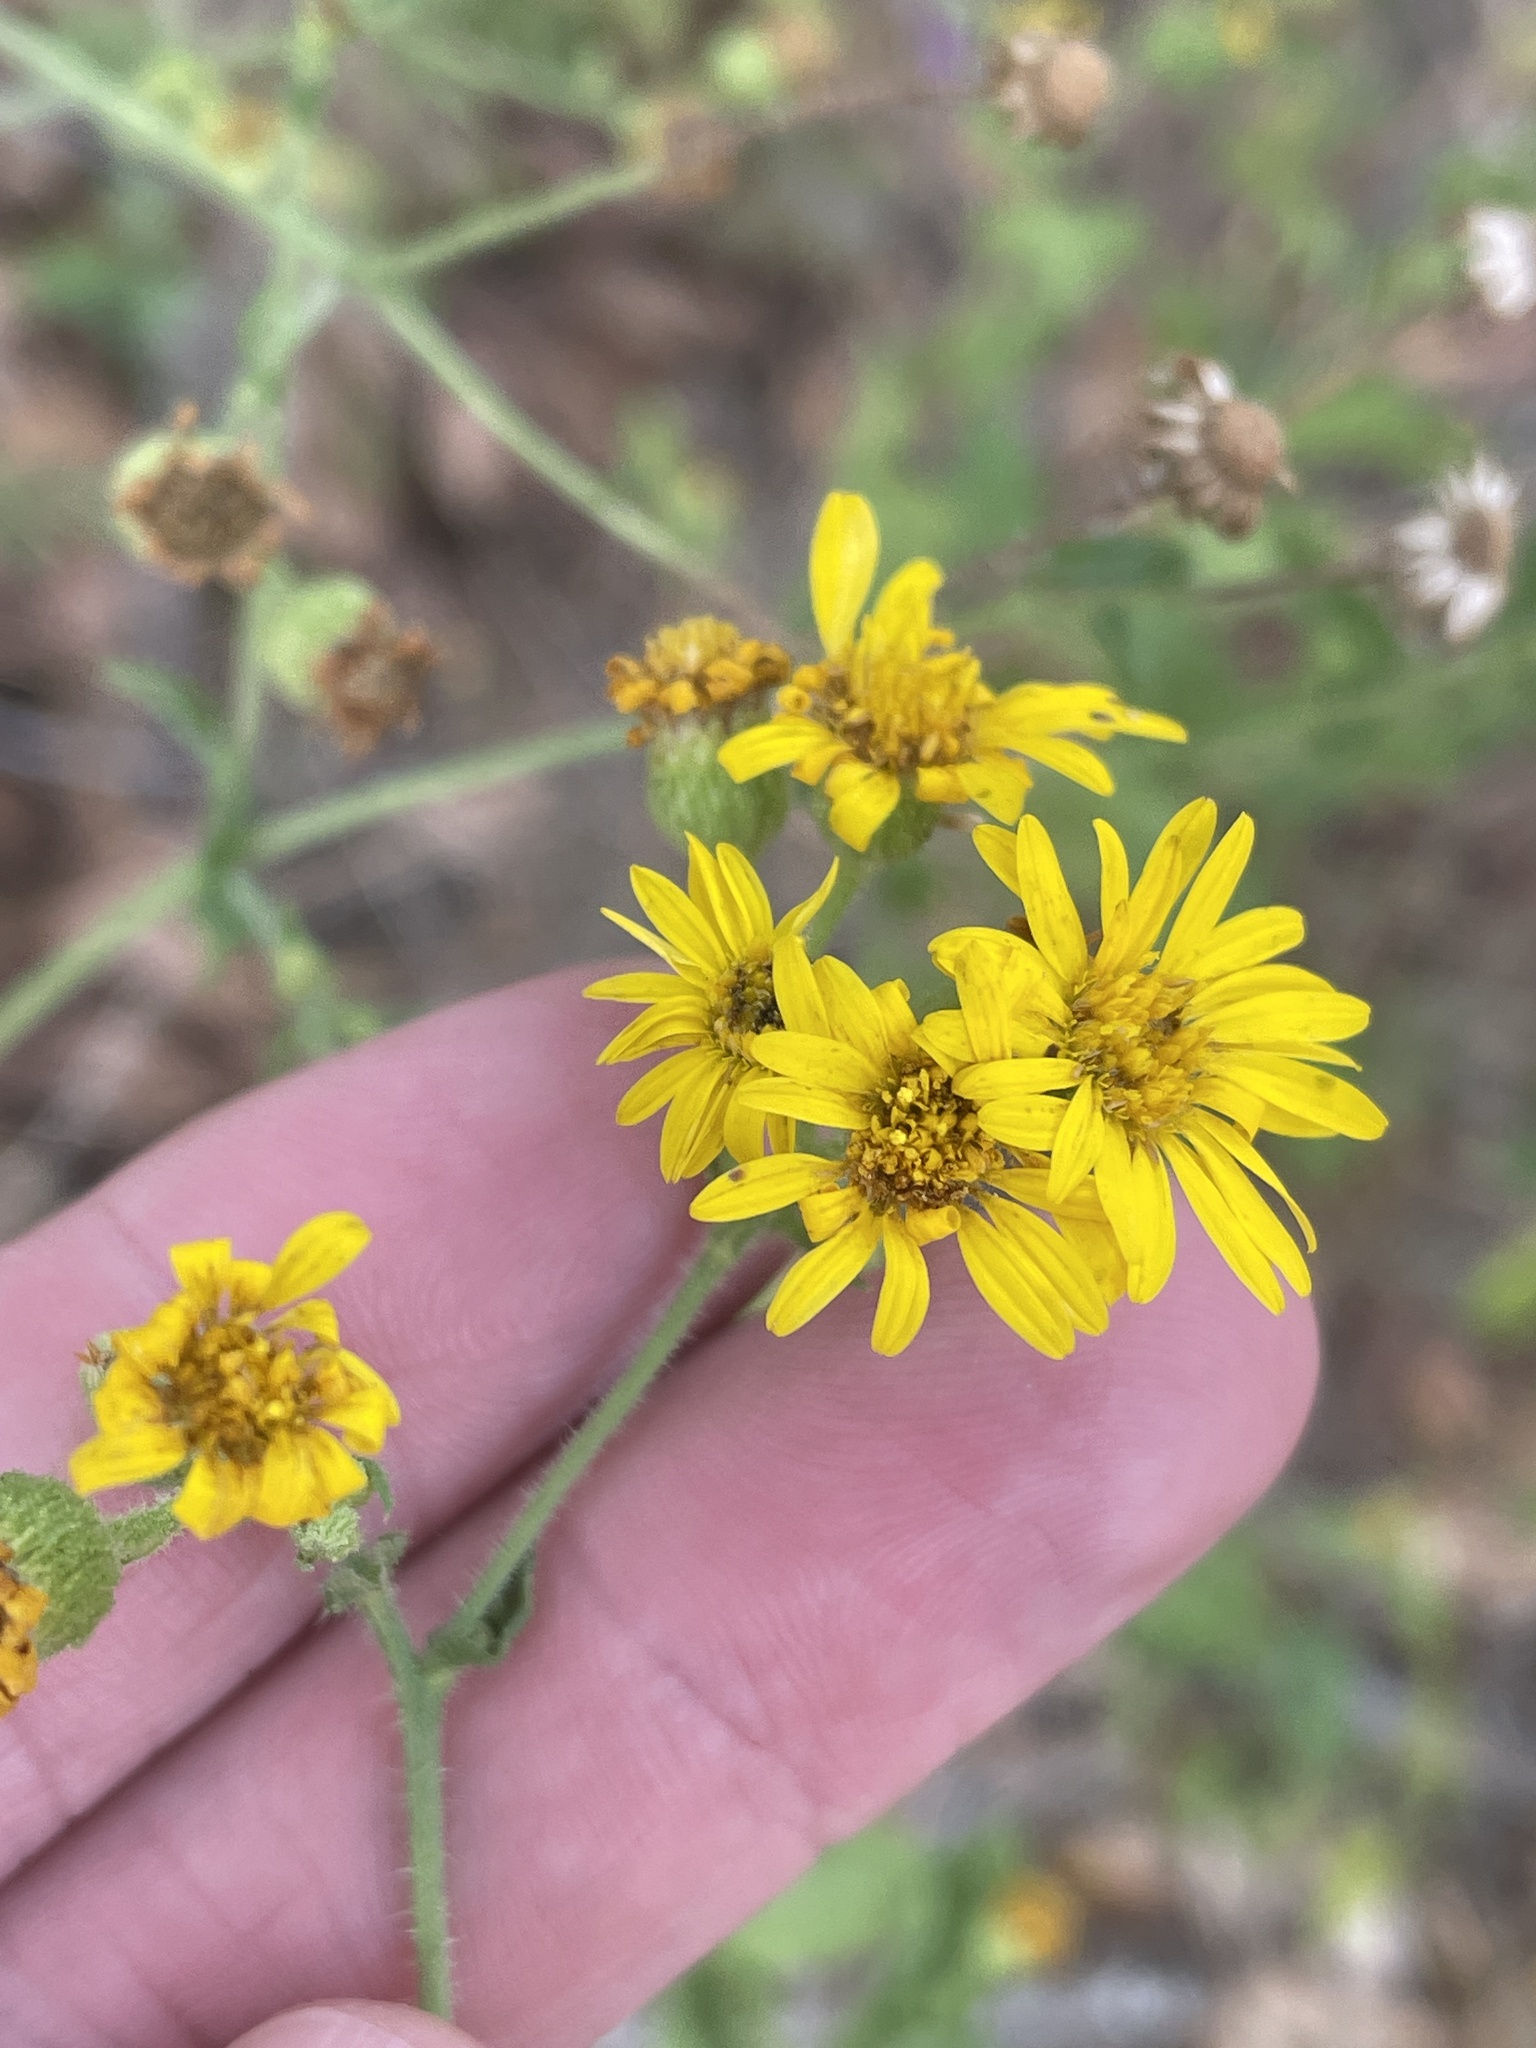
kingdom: Plantae
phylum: Tracheophyta
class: Magnoliopsida
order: Asterales
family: Asteraceae
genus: Heterotheca
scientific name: Heterotheca subaxillaris
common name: Camphorweed
